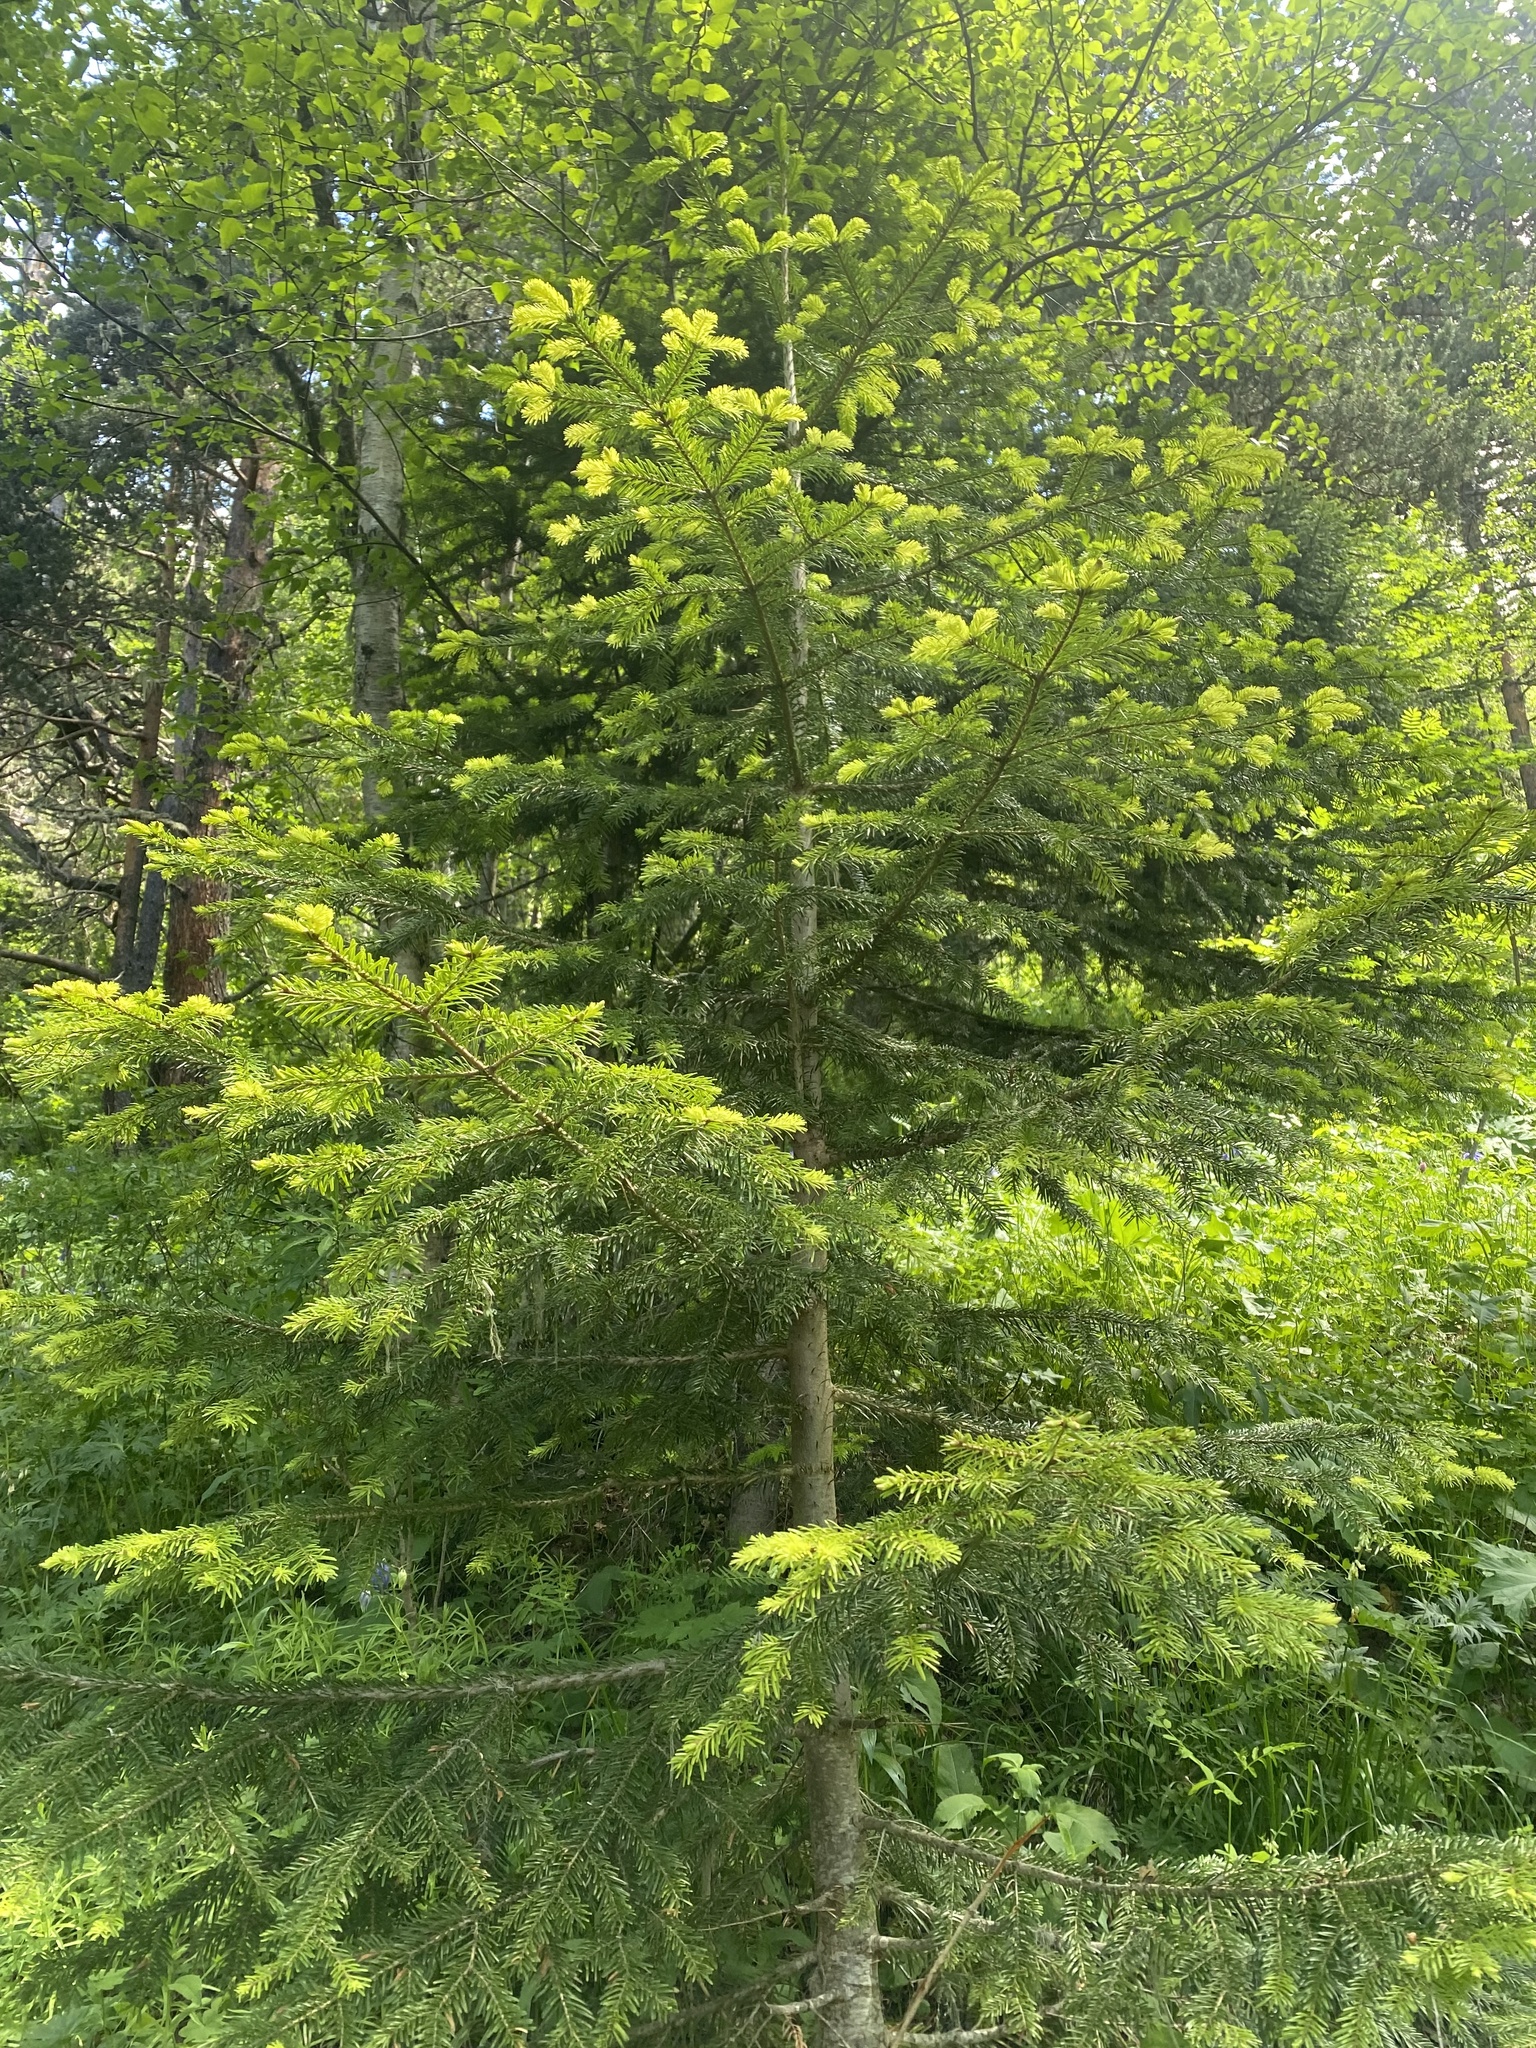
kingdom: Plantae
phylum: Tracheophyta
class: Pinopsida
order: Pinales
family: Pinaceae
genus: Abies
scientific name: Abies nordmanniana
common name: Caucasian fir
